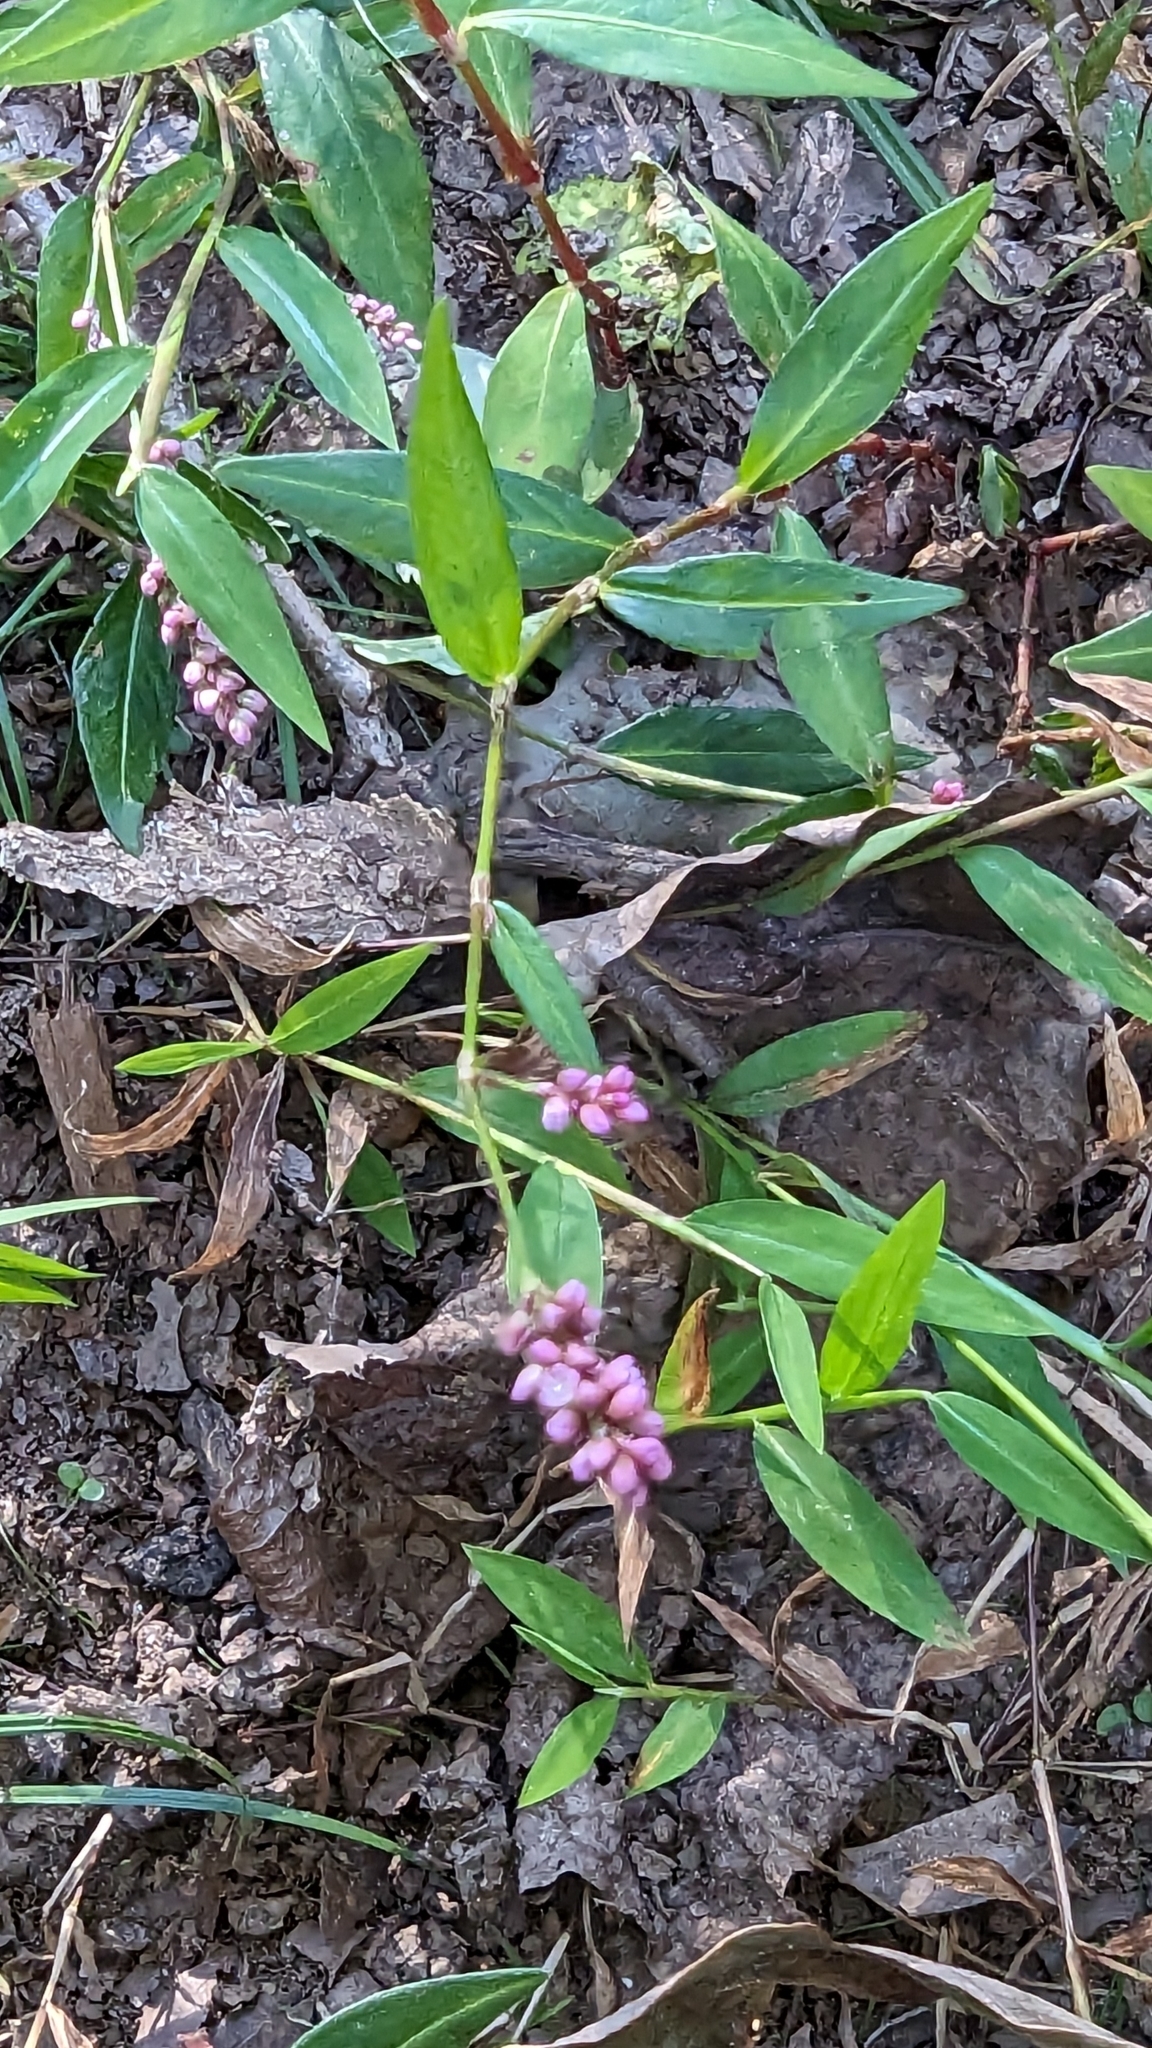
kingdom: Plantae
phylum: Tracheophyta
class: Magnoliopsida
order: Caryophyllales
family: Polygonaceae
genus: Persicaria
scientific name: Persicaria longiseta
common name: Bristly lady's-thumb
